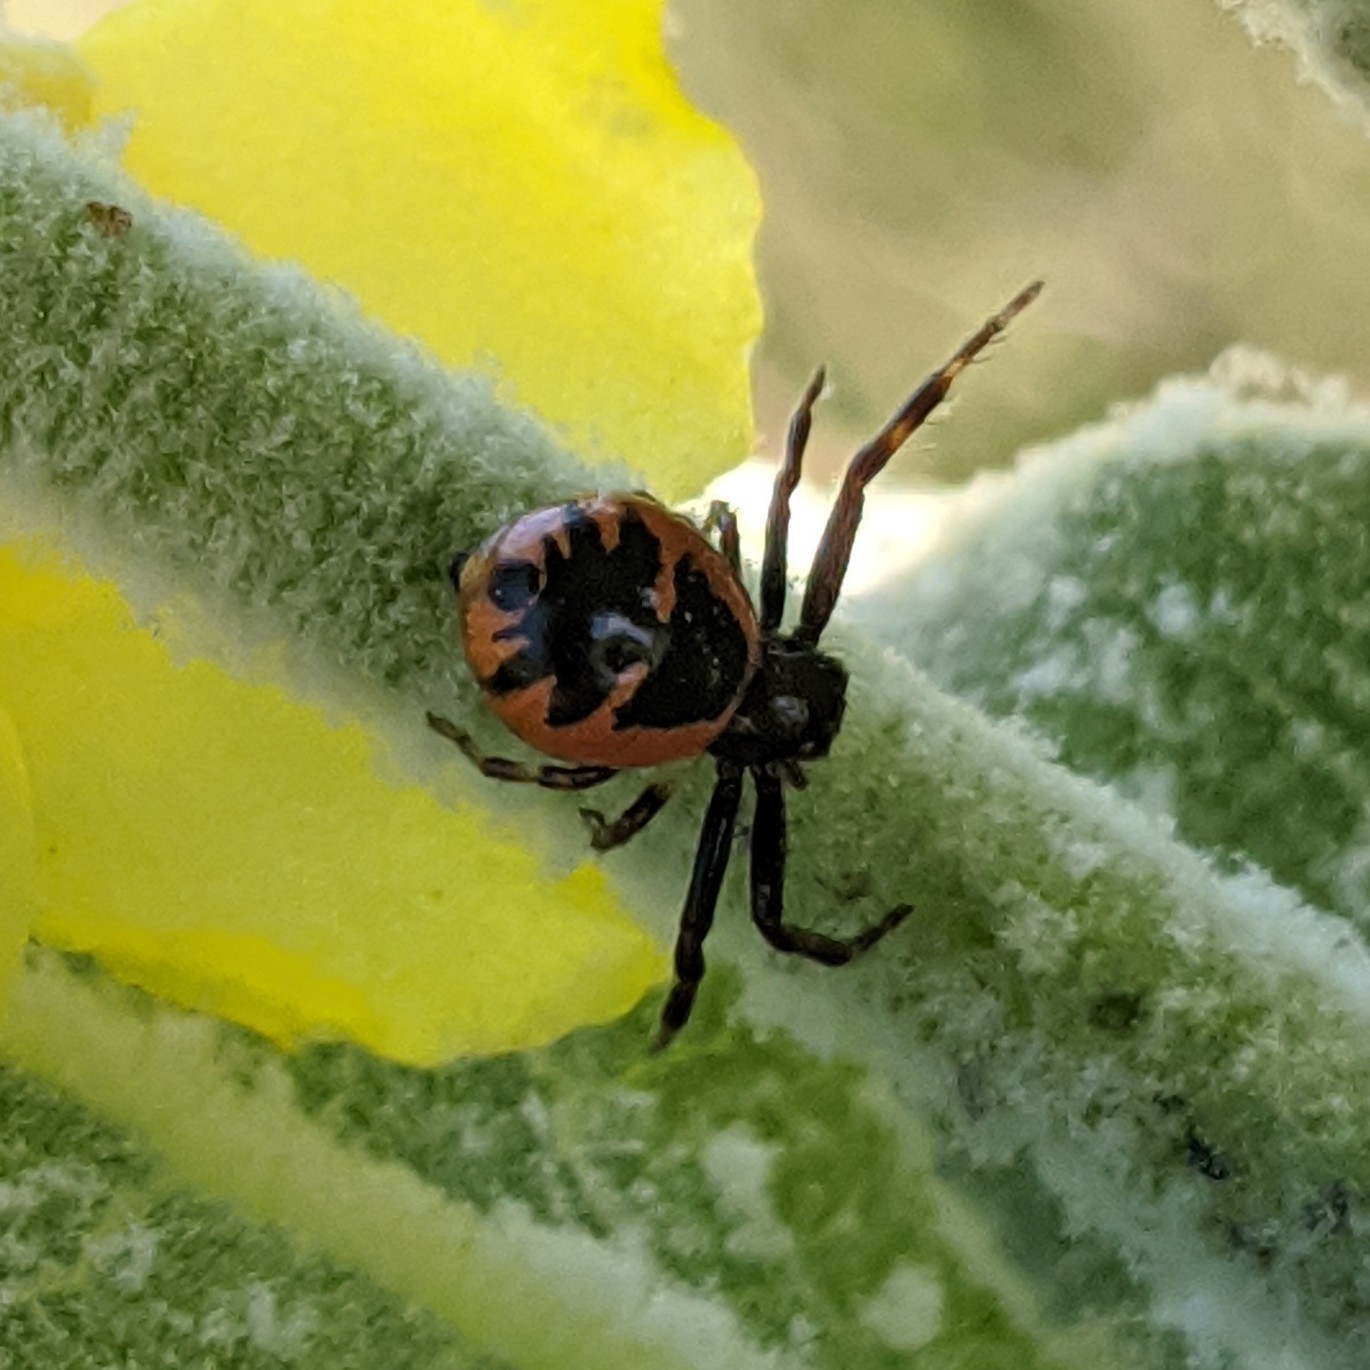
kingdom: Animalia
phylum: Arthropoda
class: Arachnida
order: Araneae
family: Thomisidae
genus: Synema
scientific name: Synema globosum
